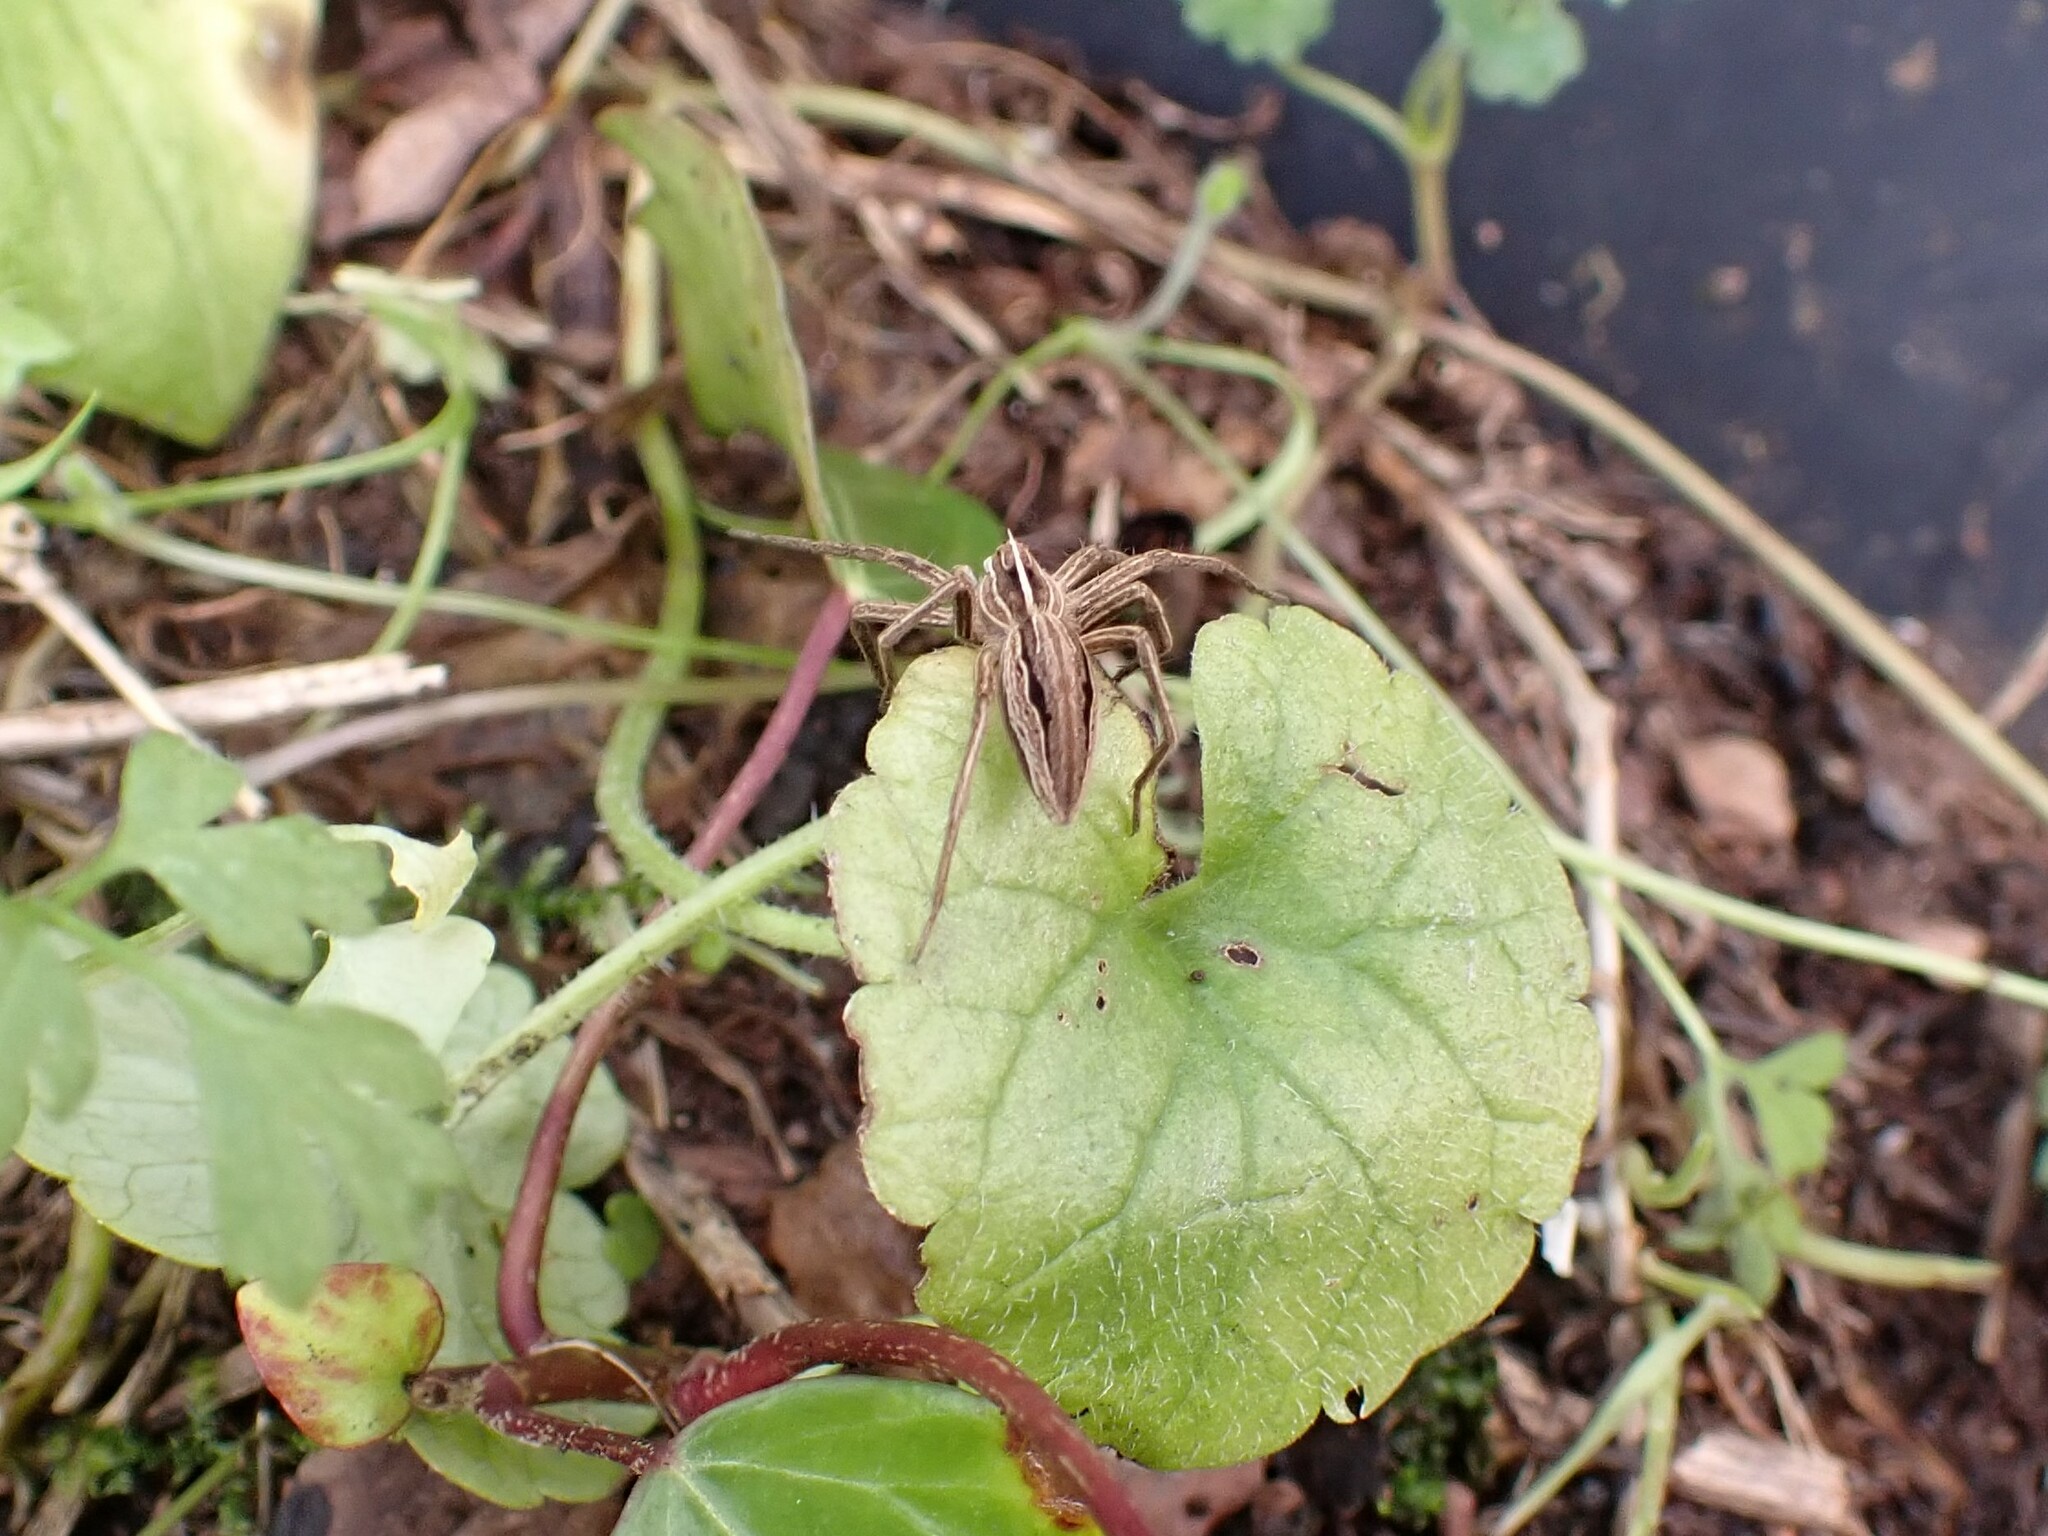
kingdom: Animalia
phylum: Arthropoda
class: Arachnida
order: Araneae
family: Pisauridae
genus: Pisaura
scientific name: Pisaura mirabilis
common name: Tent spider
